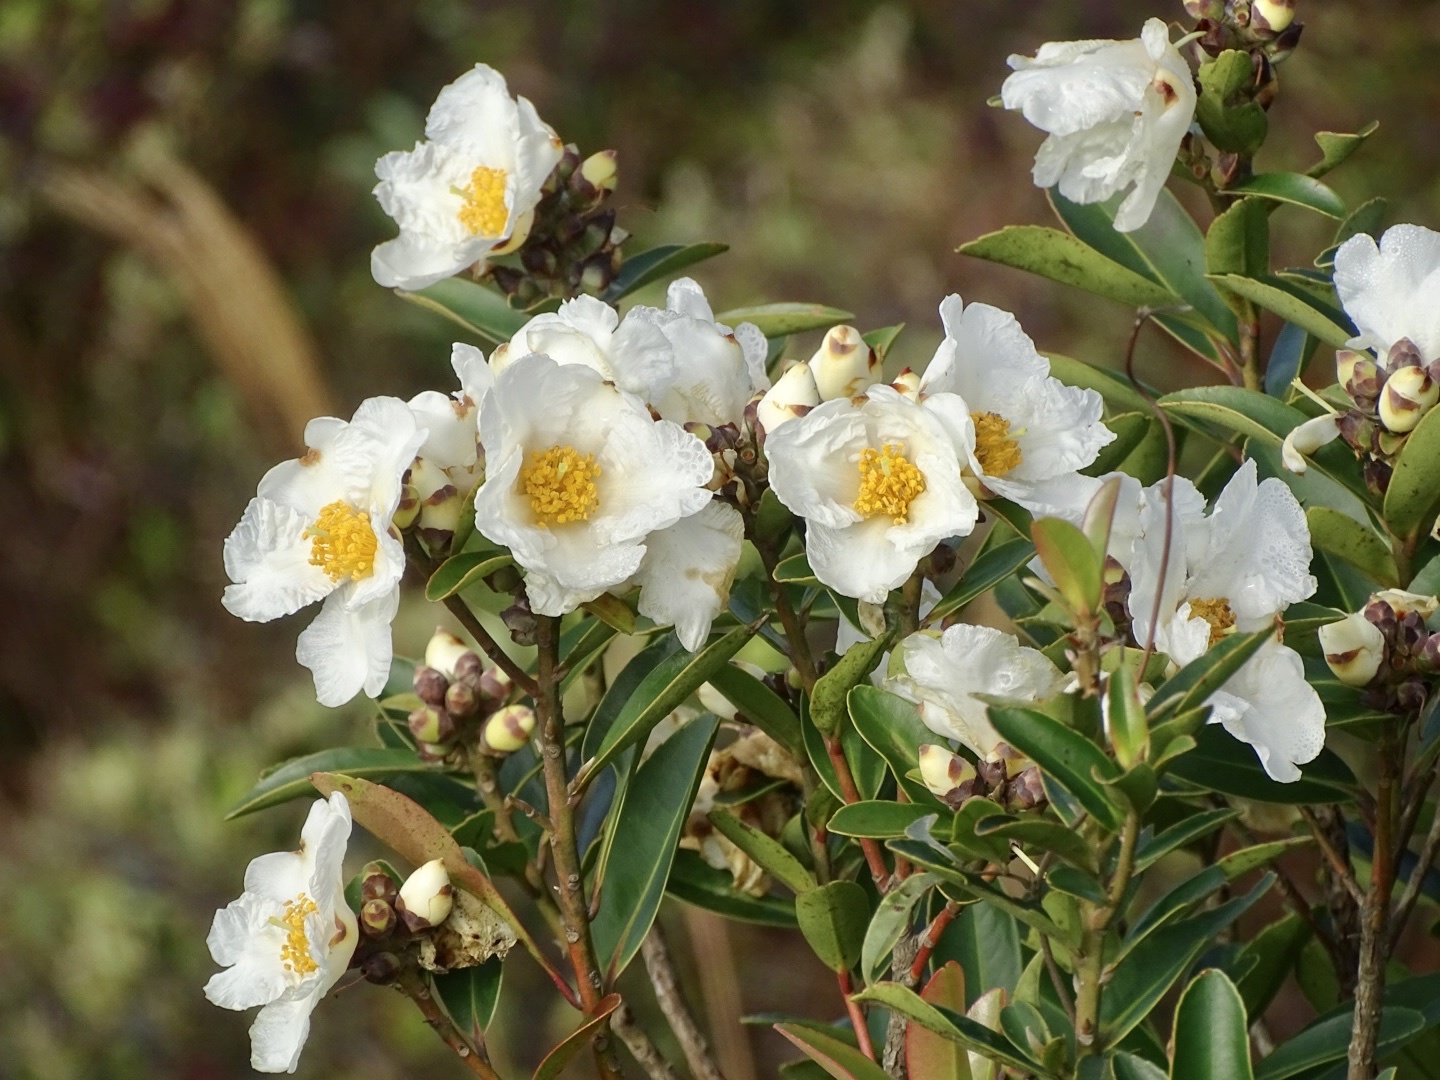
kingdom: Plantae
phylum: Tracheophyta
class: Magnoliopsida
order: Ericales
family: Theaceae
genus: Polyspora
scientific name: Polyspora axillaris
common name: Fried egg tree
